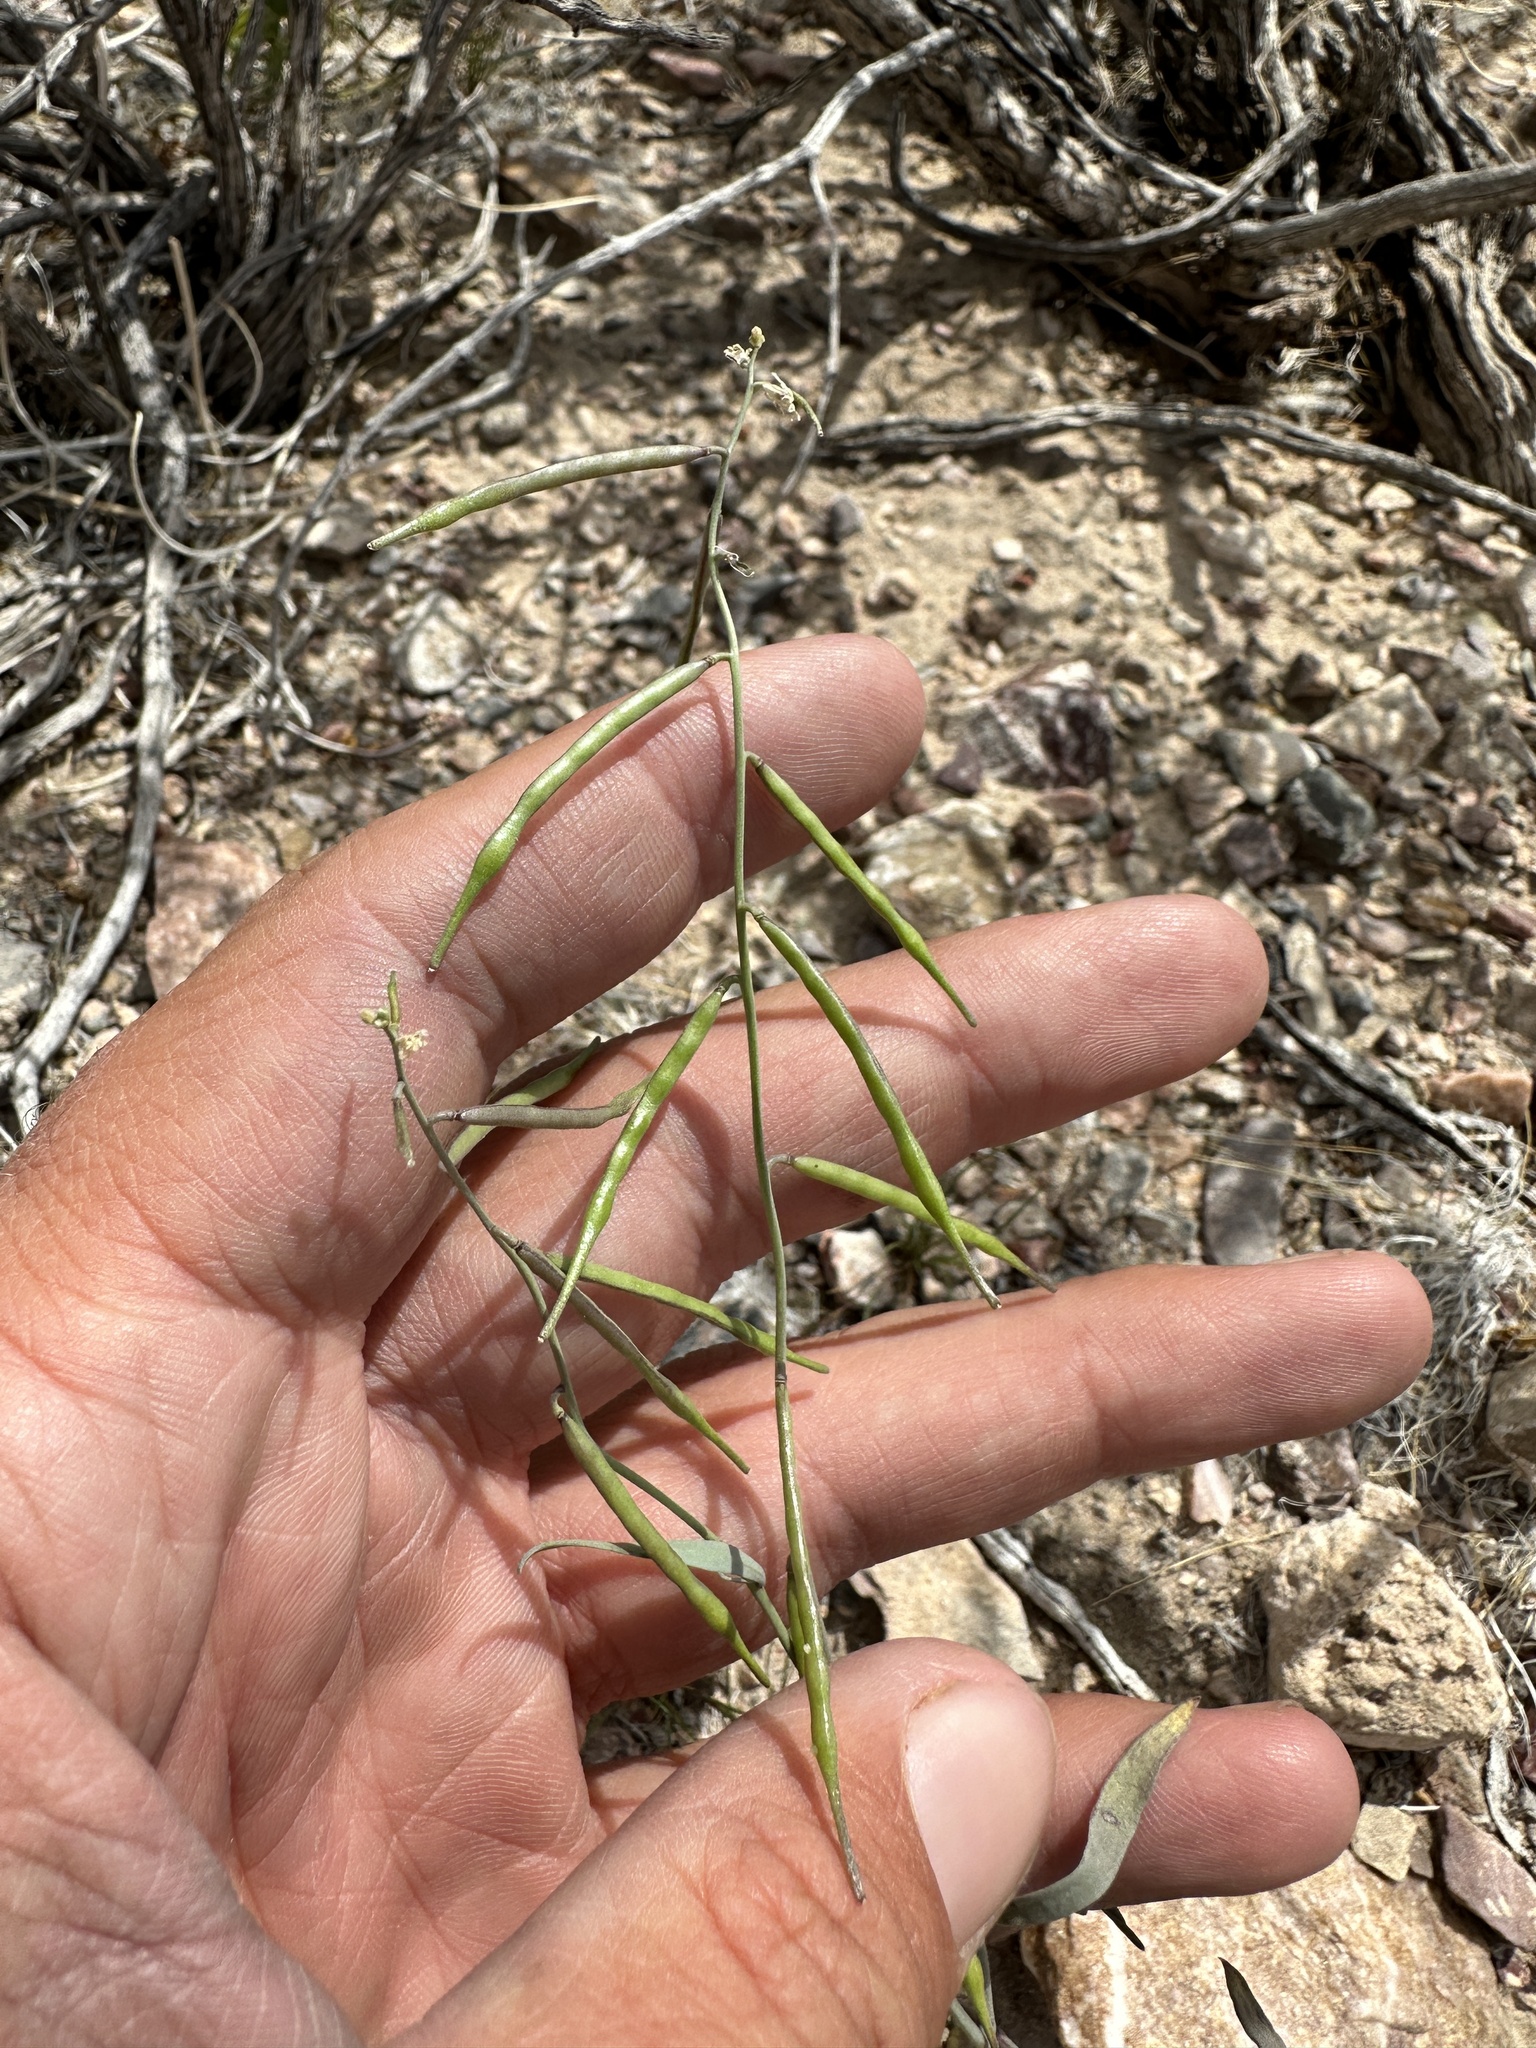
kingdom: Plantae
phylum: Tracheophyta
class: Magnoliopsida
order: Brassicales
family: Brassicaceae
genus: Streptanthus
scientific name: Streptanthus longirostris
